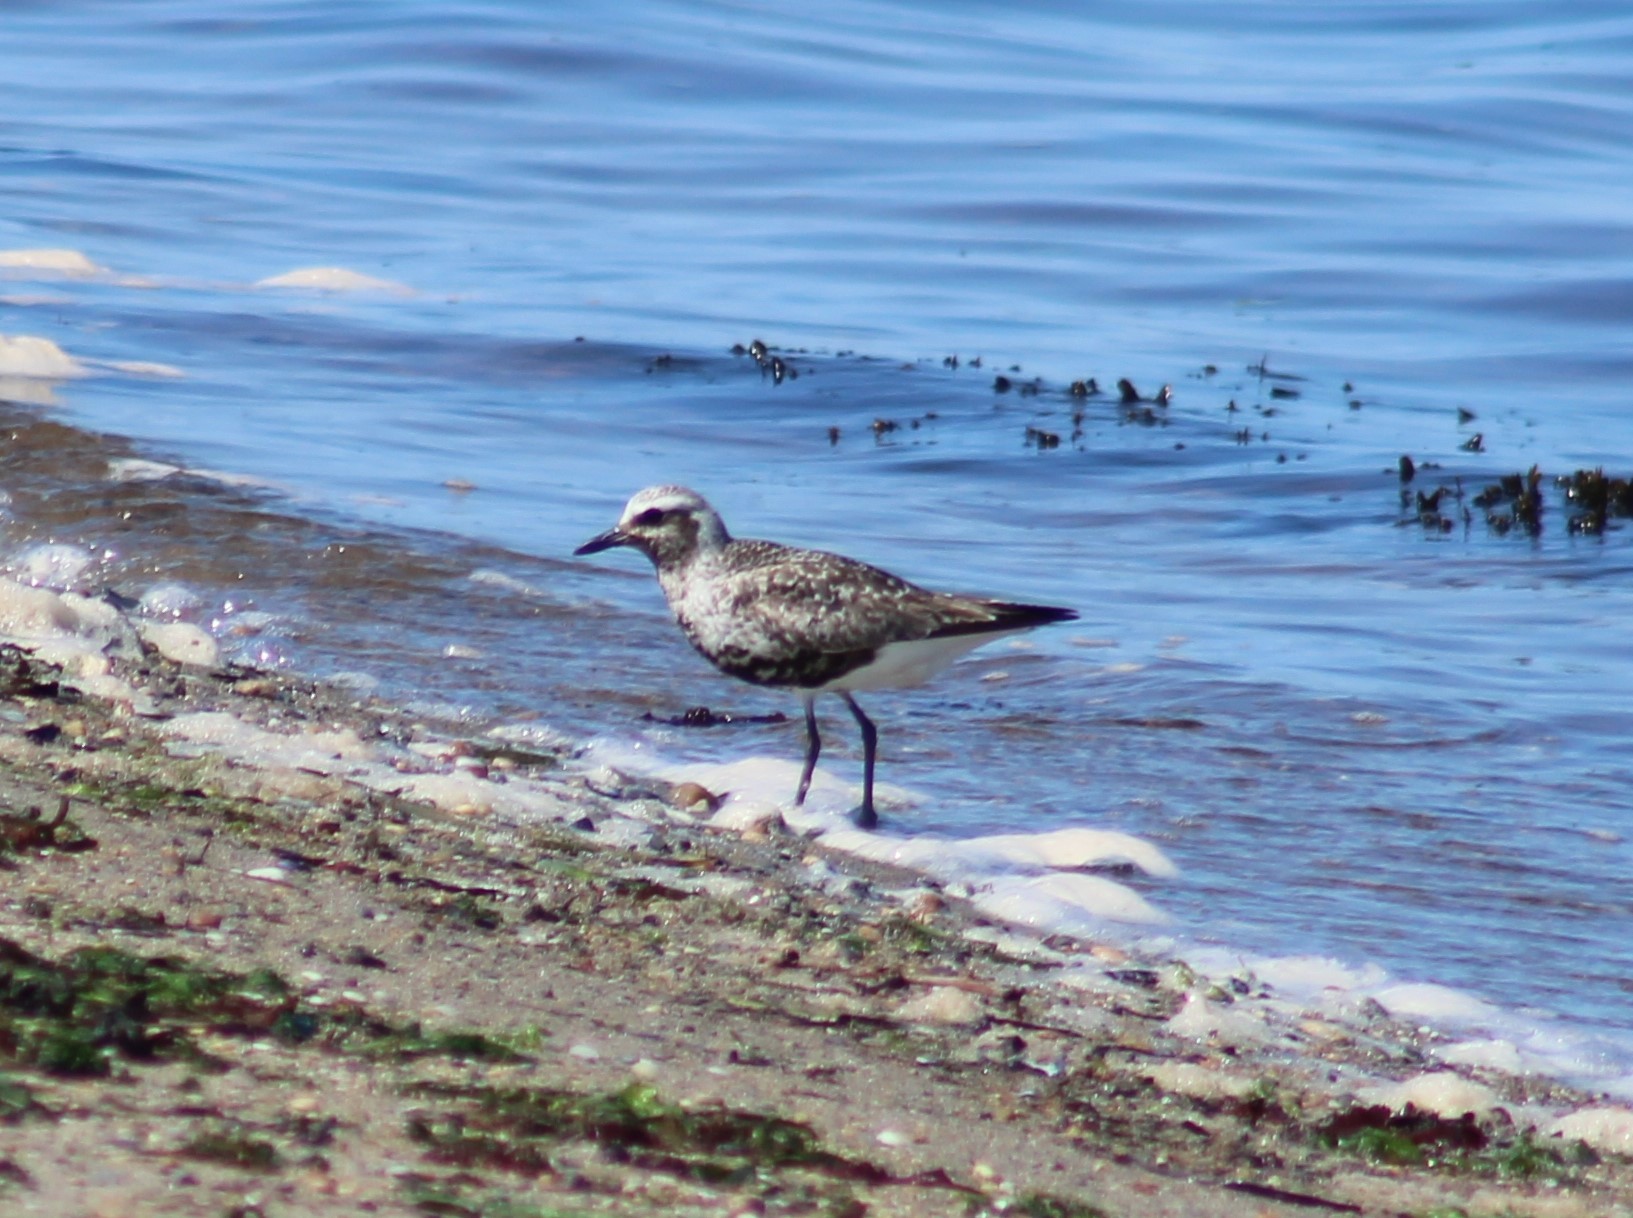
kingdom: Animalia
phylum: Chordata
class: Aves
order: Charadriiformes
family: Charadriidae
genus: Pluvialis
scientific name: Pluvialis squatarola
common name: Grey plover
